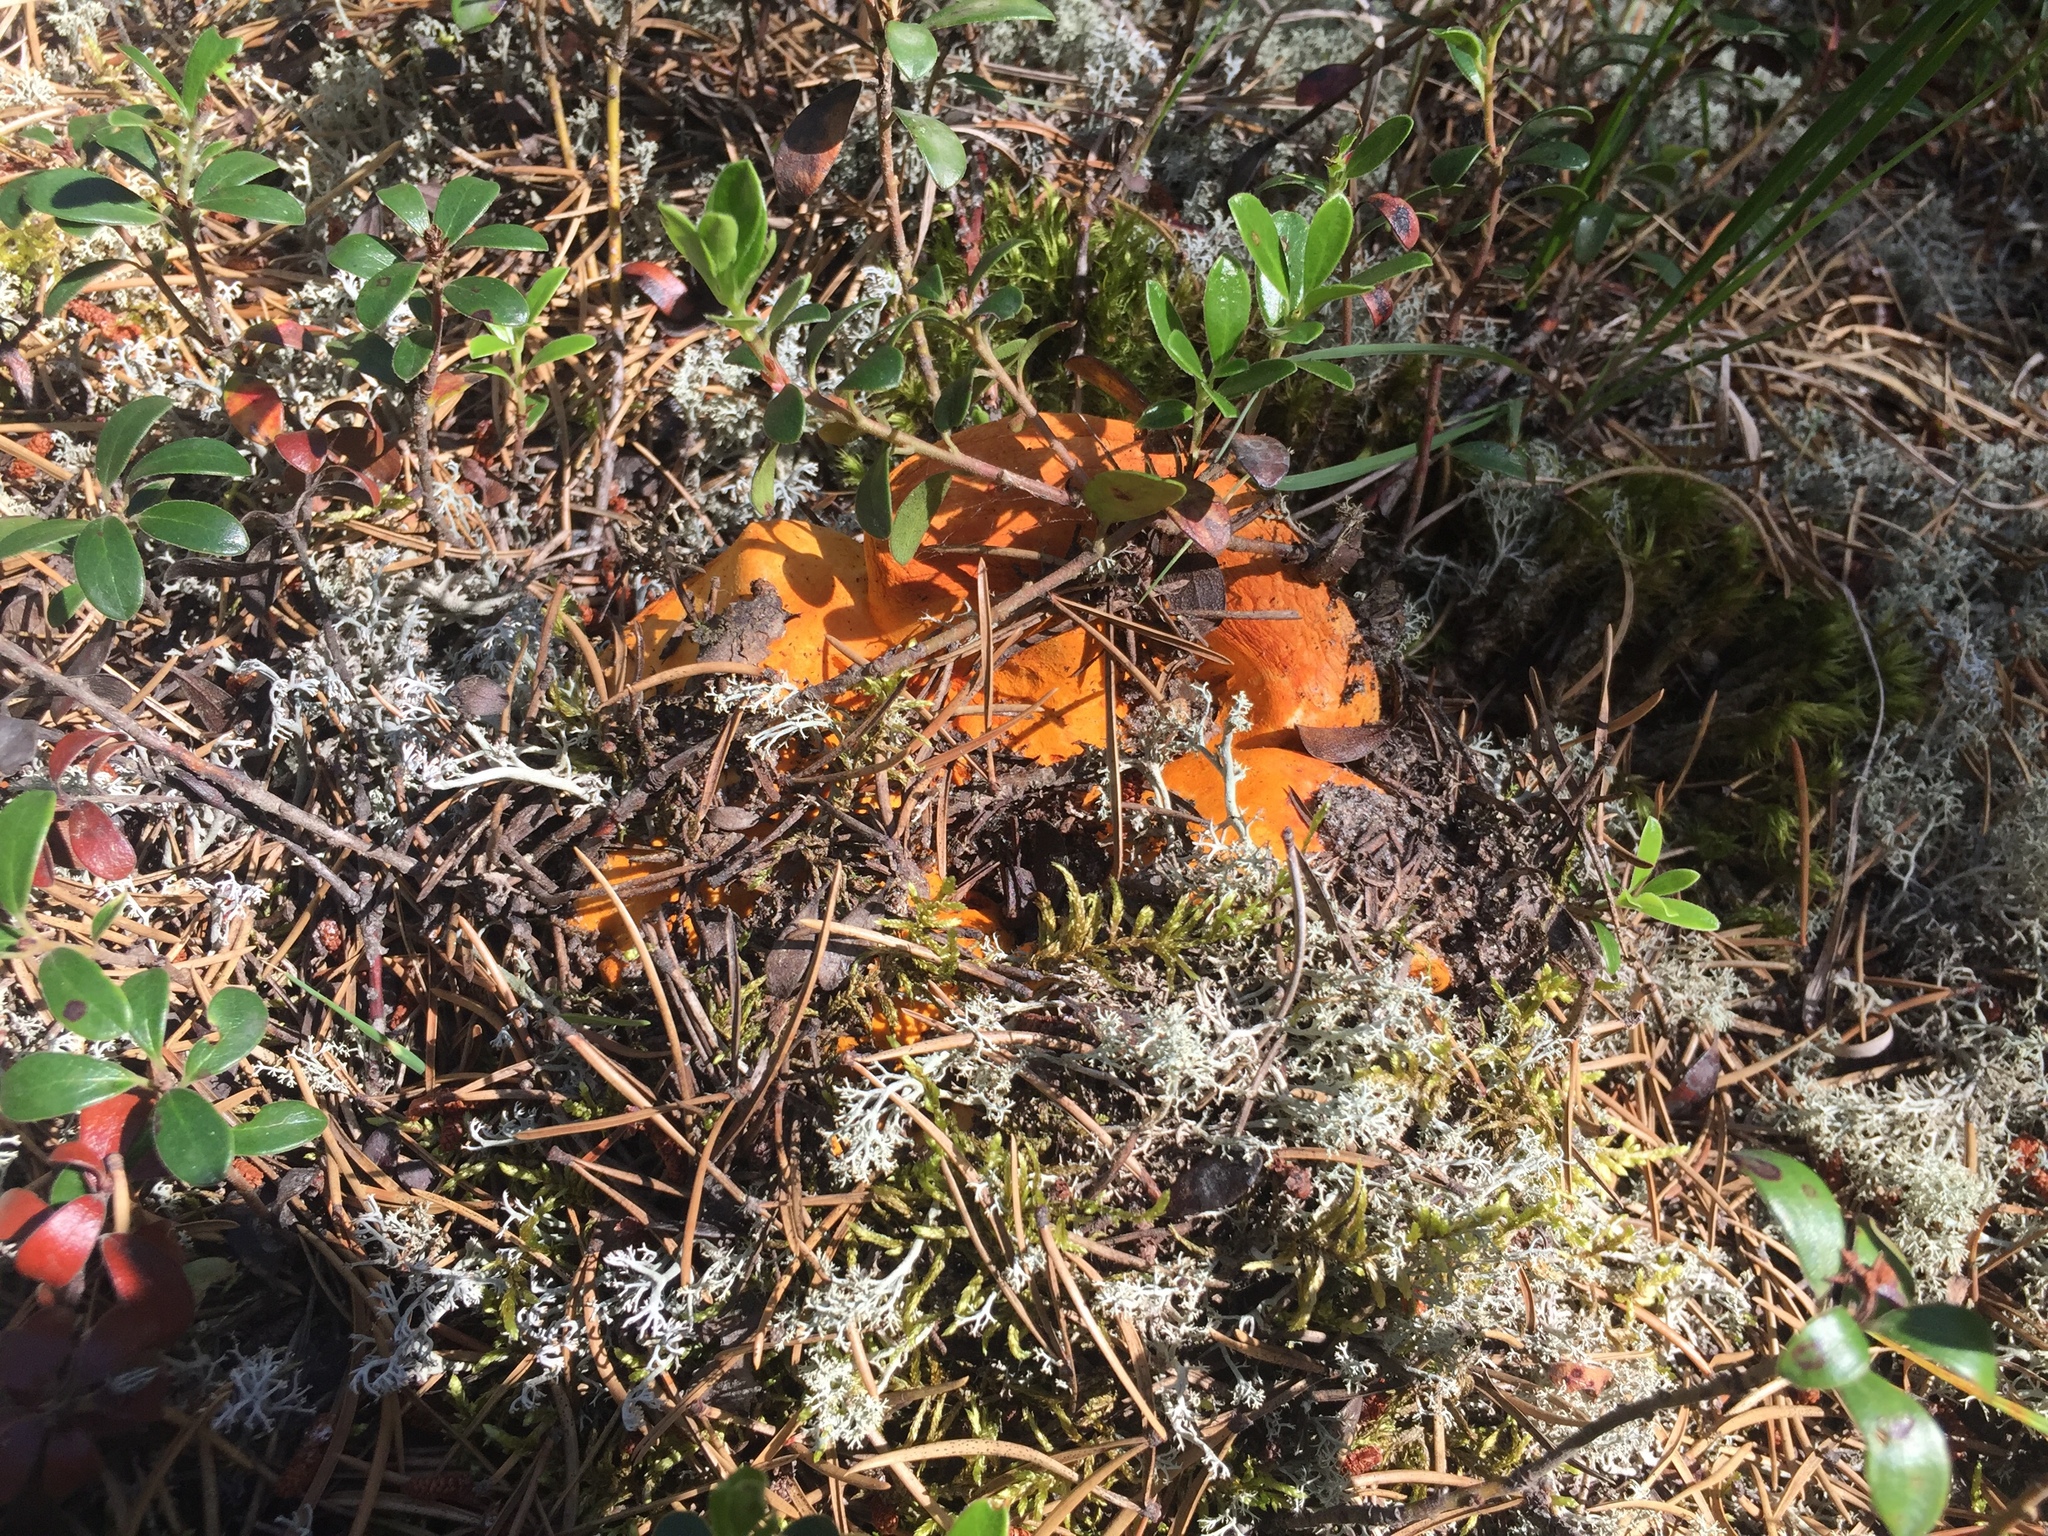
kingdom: Fungi
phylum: Ascomycota
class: Sordariomycetes
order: Hypocreales
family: Hypocreaceae
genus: Hypomyces
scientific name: Hypomyces lactifluorum
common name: Lobster mushroom
